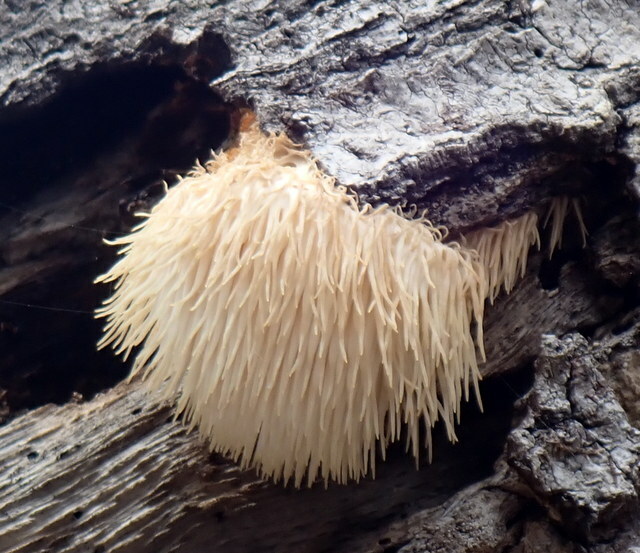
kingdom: Fungi
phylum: Basidiomycota
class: Agaricomycetes
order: Russulales
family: Hericiaceae
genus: Hericium
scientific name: Hericium erinaceus
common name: Bearded tooth
